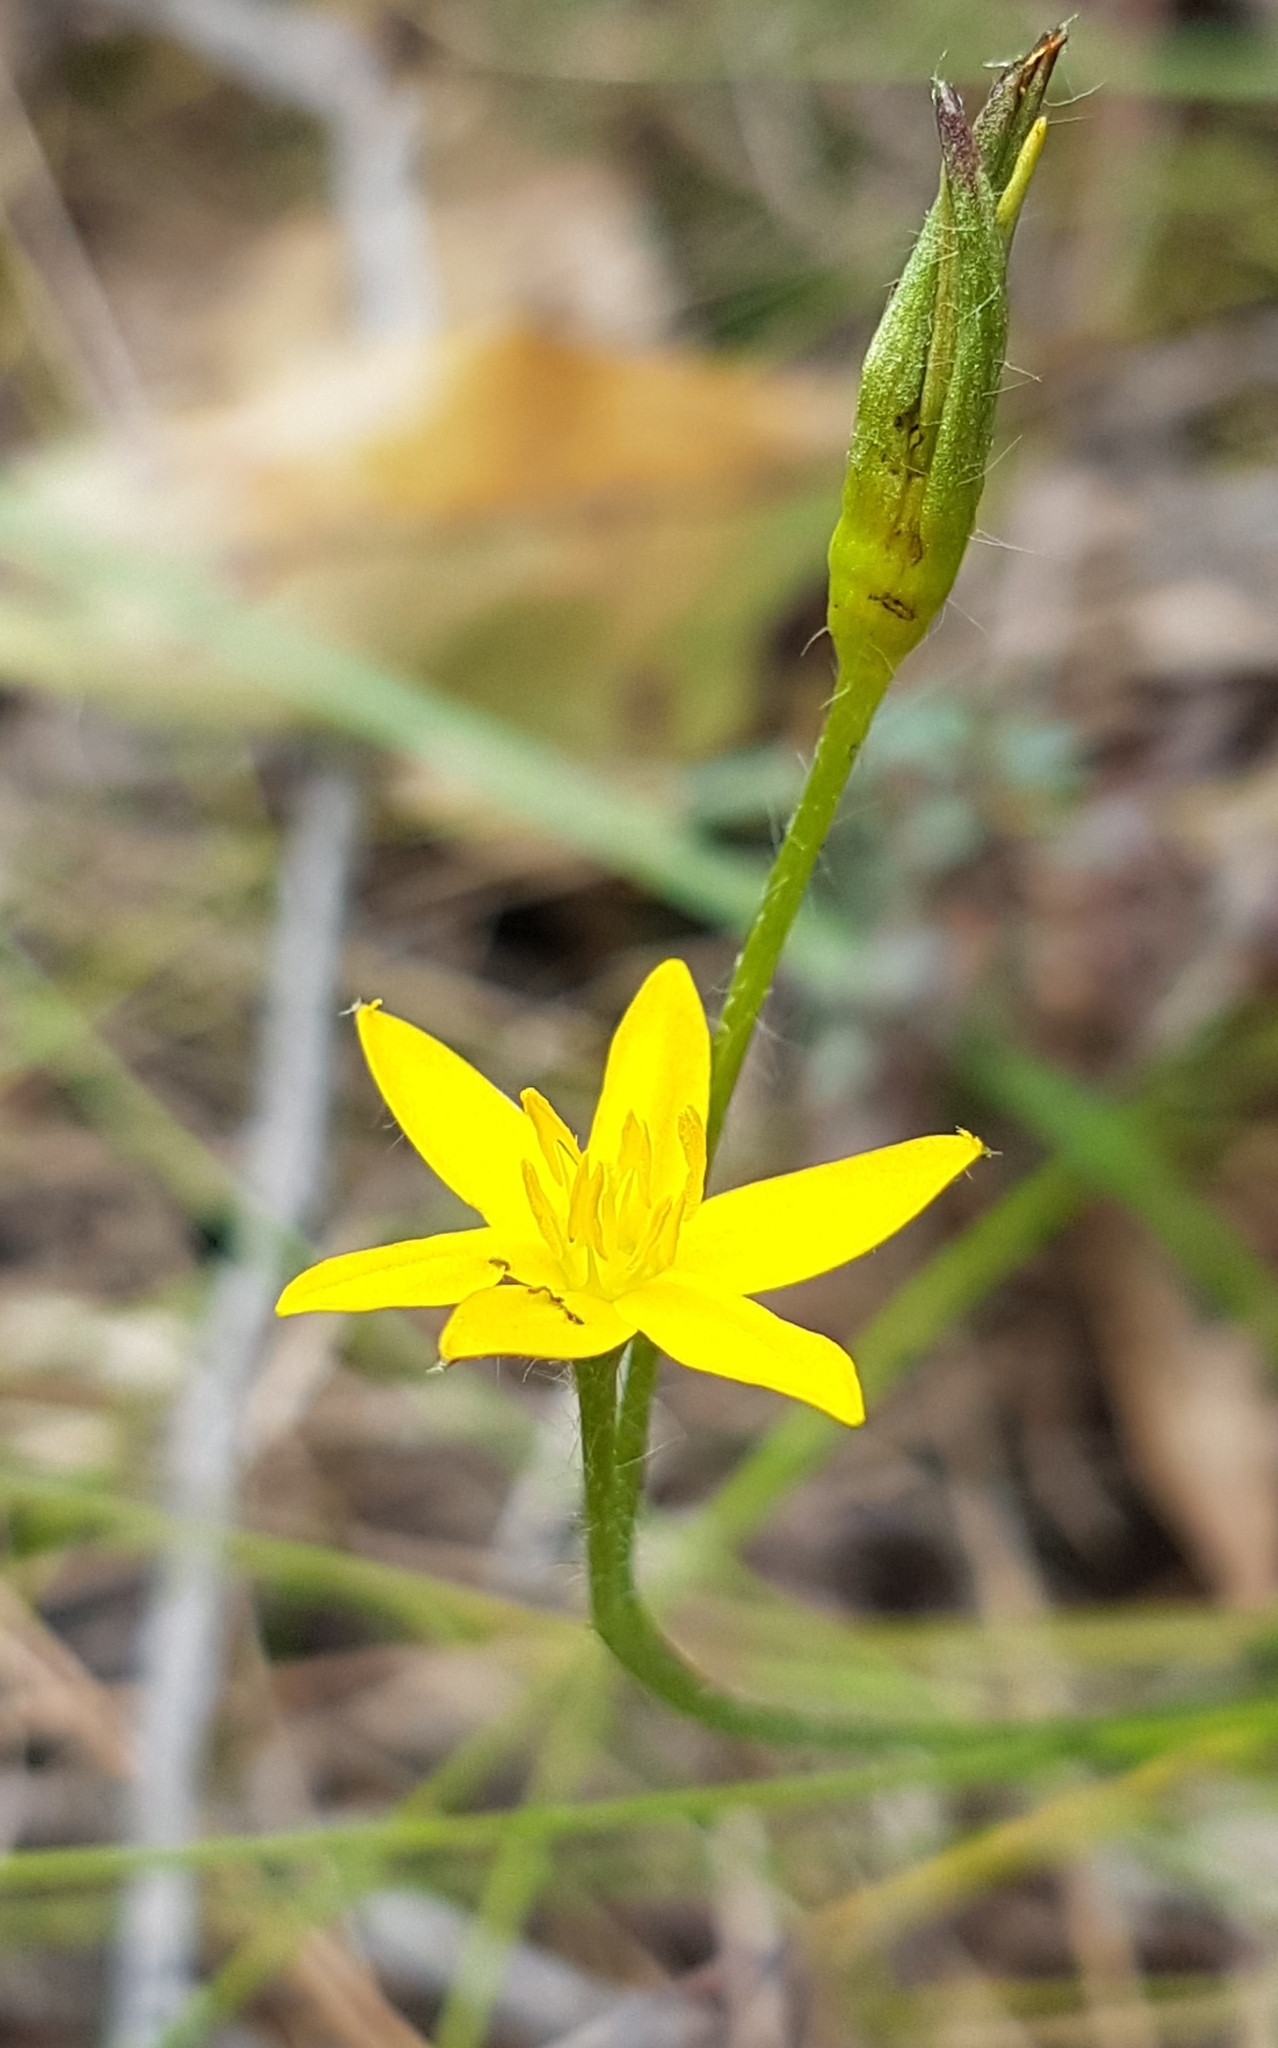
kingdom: Plantae
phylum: Tracheophyta
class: Liliopsida
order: Asparagales
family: Hypoxidaceae
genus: Hypoxis
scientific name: Hypoxis hygrometrica
